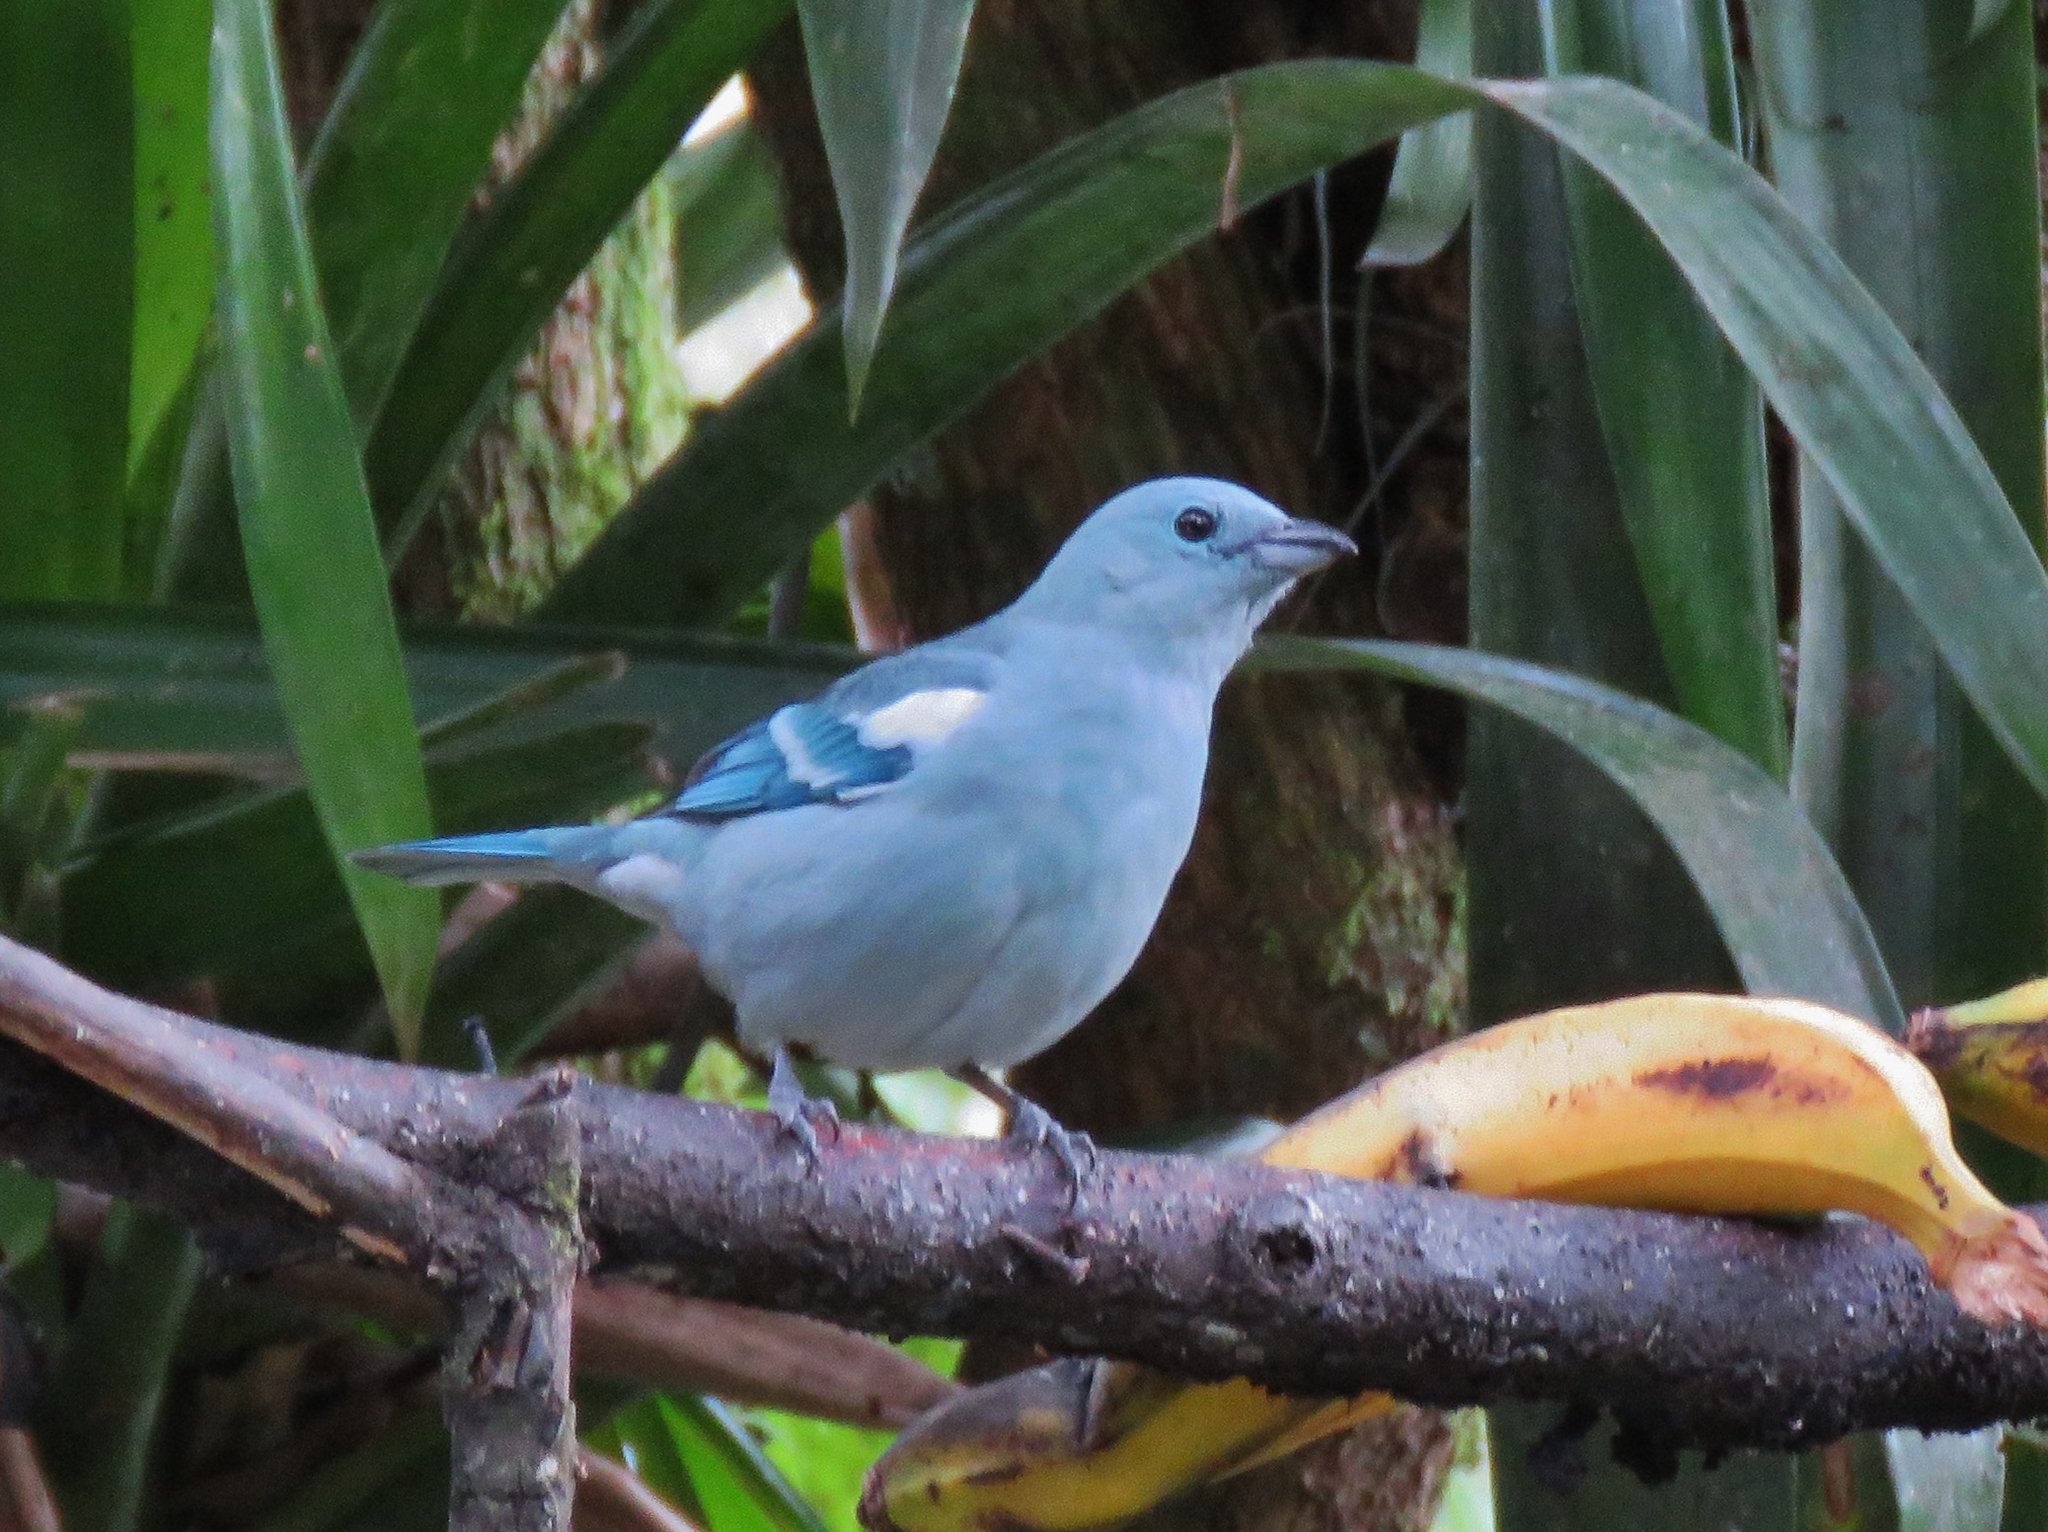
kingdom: Animalia
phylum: Chordata
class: Aves
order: Passeriformes
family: Thraupidae
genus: Thraupis
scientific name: Thraupis episcopus
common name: Blue-grey tanager
